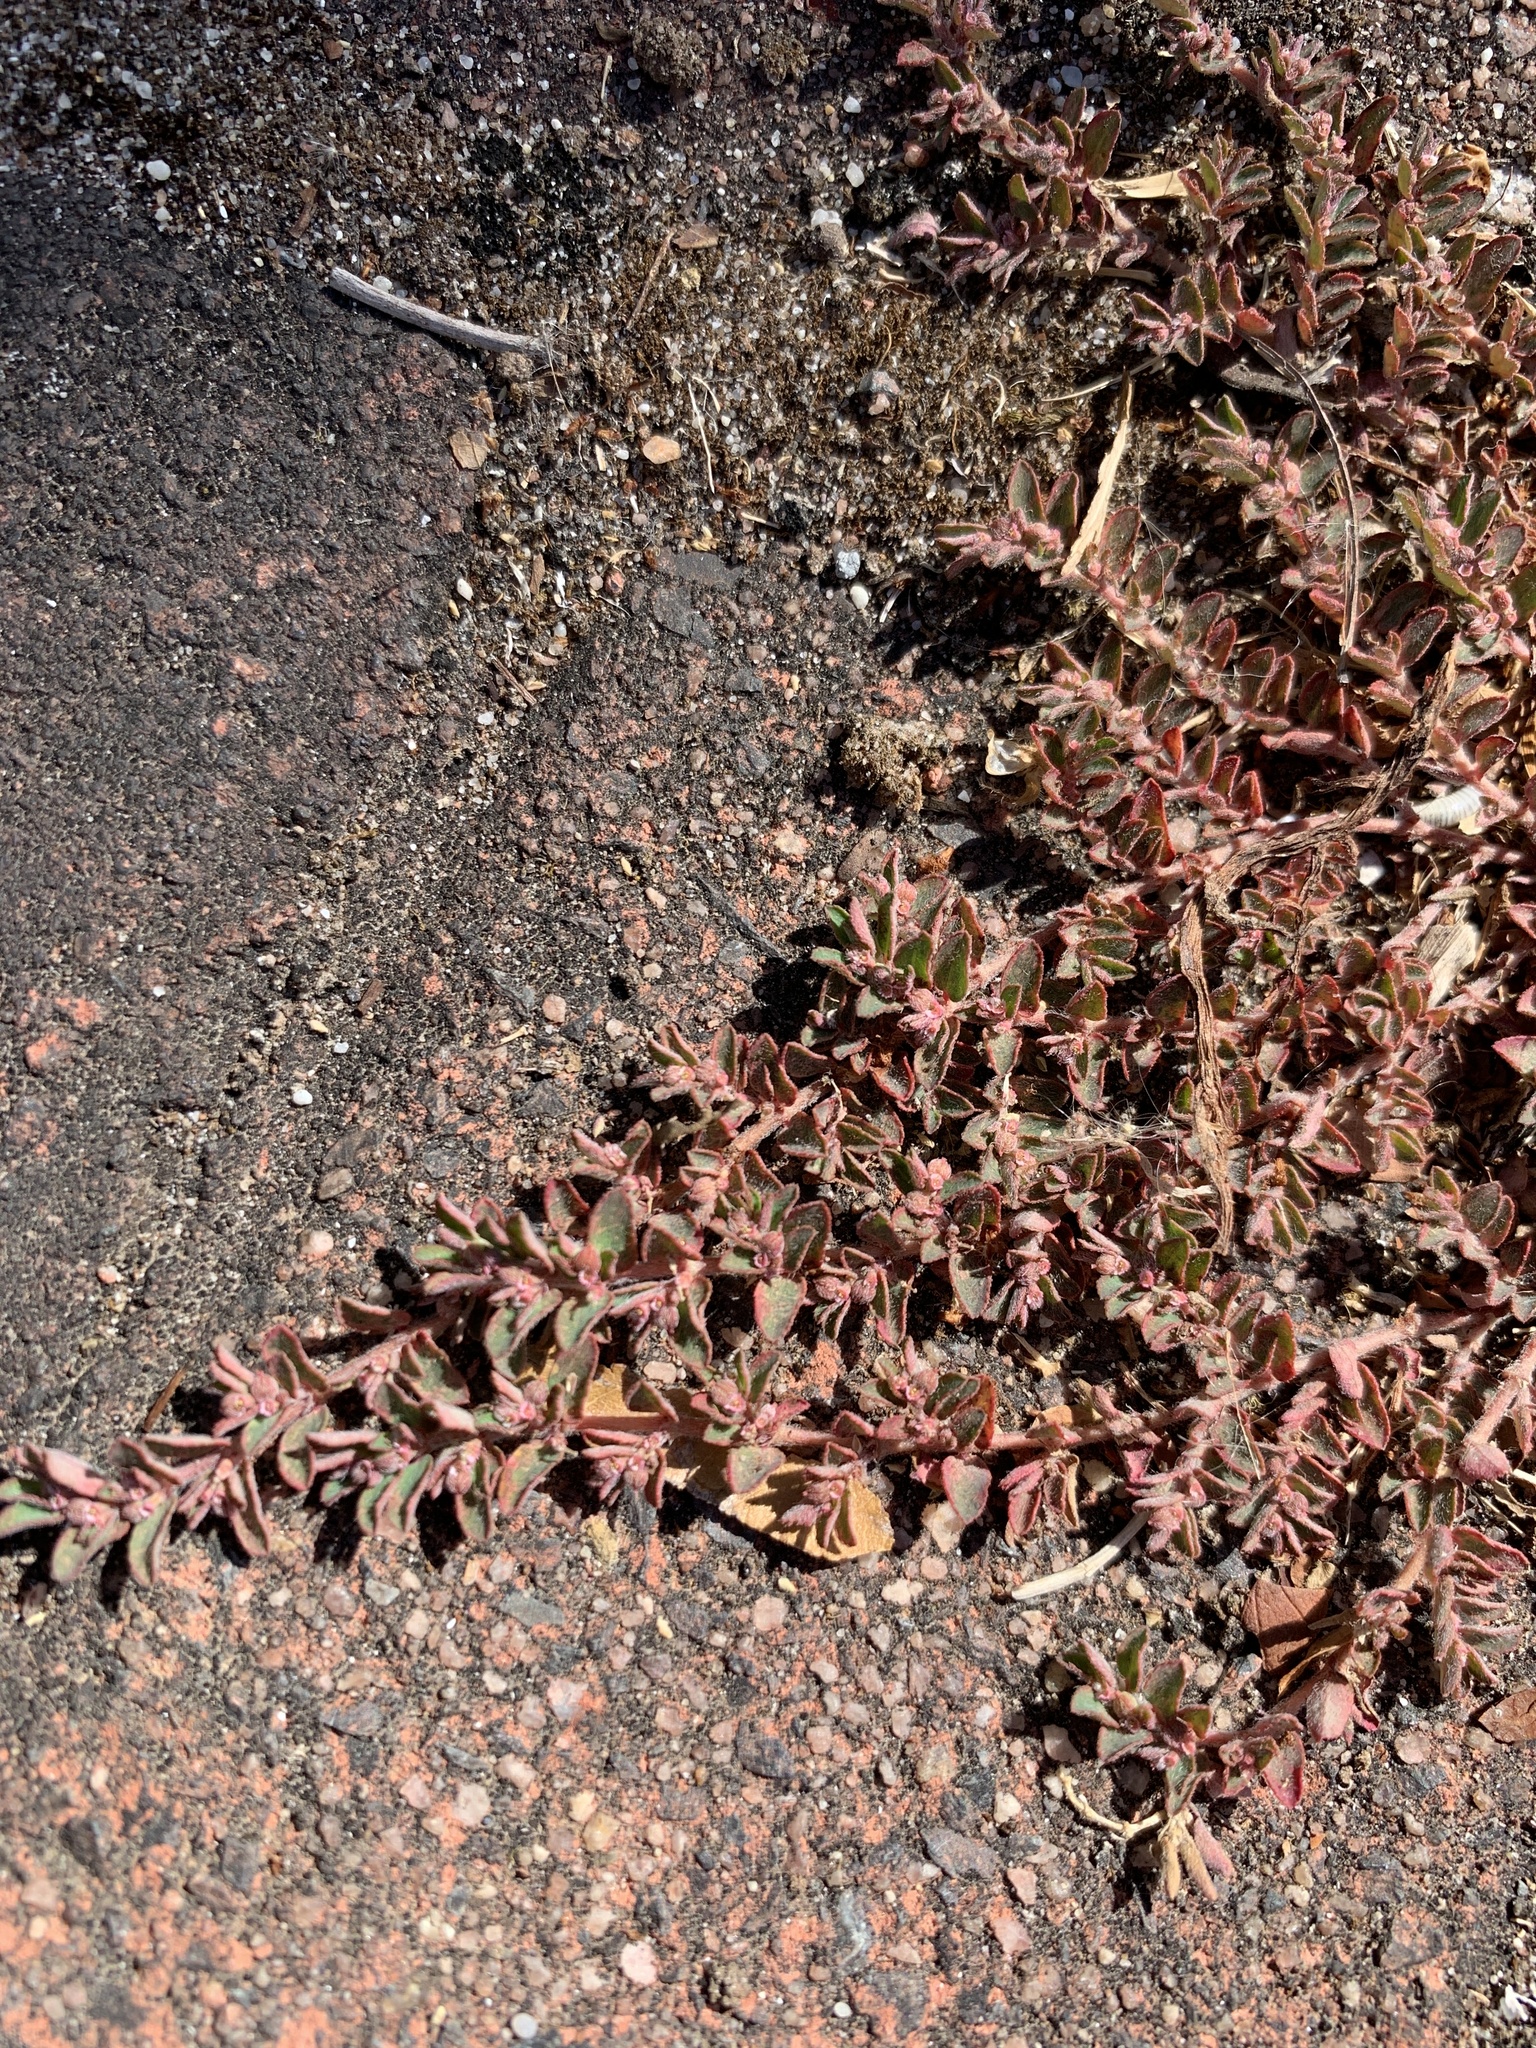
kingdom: Plantae
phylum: Tracheophyta
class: Magnoliopsida
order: Malpighiales
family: Euphorbiaceae
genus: Euphorbia
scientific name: Euphorbia maculata
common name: Spotted spurge
